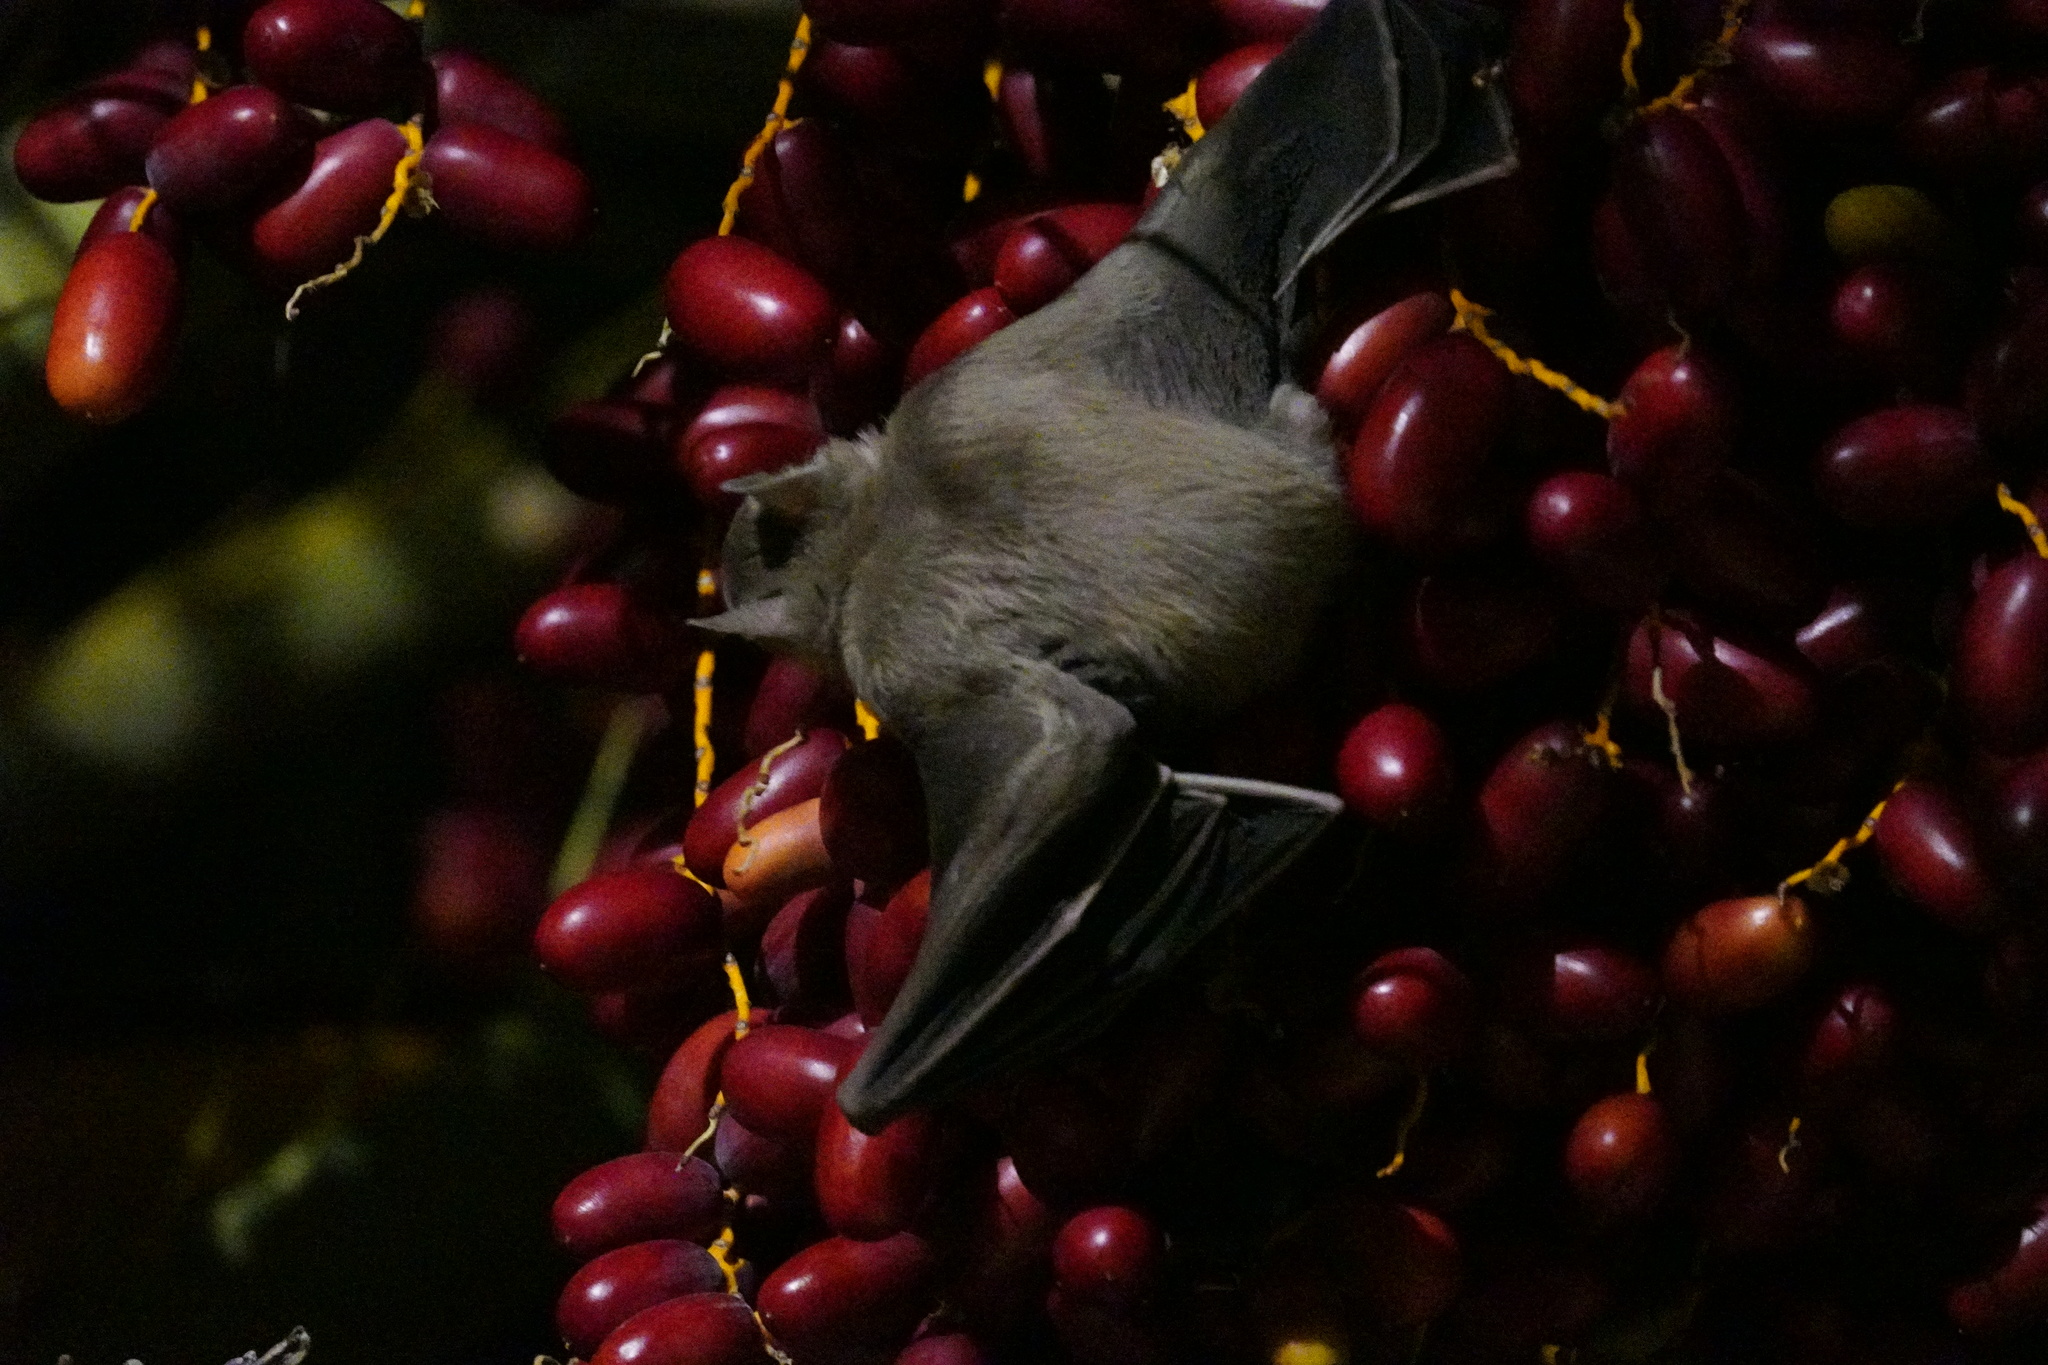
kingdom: Animalia
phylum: Chordata
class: Mammalia
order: Chiroptera
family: Pteropodidae
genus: Rousettus
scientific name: Rousettus aegyptiacus
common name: Egyptian rousette
